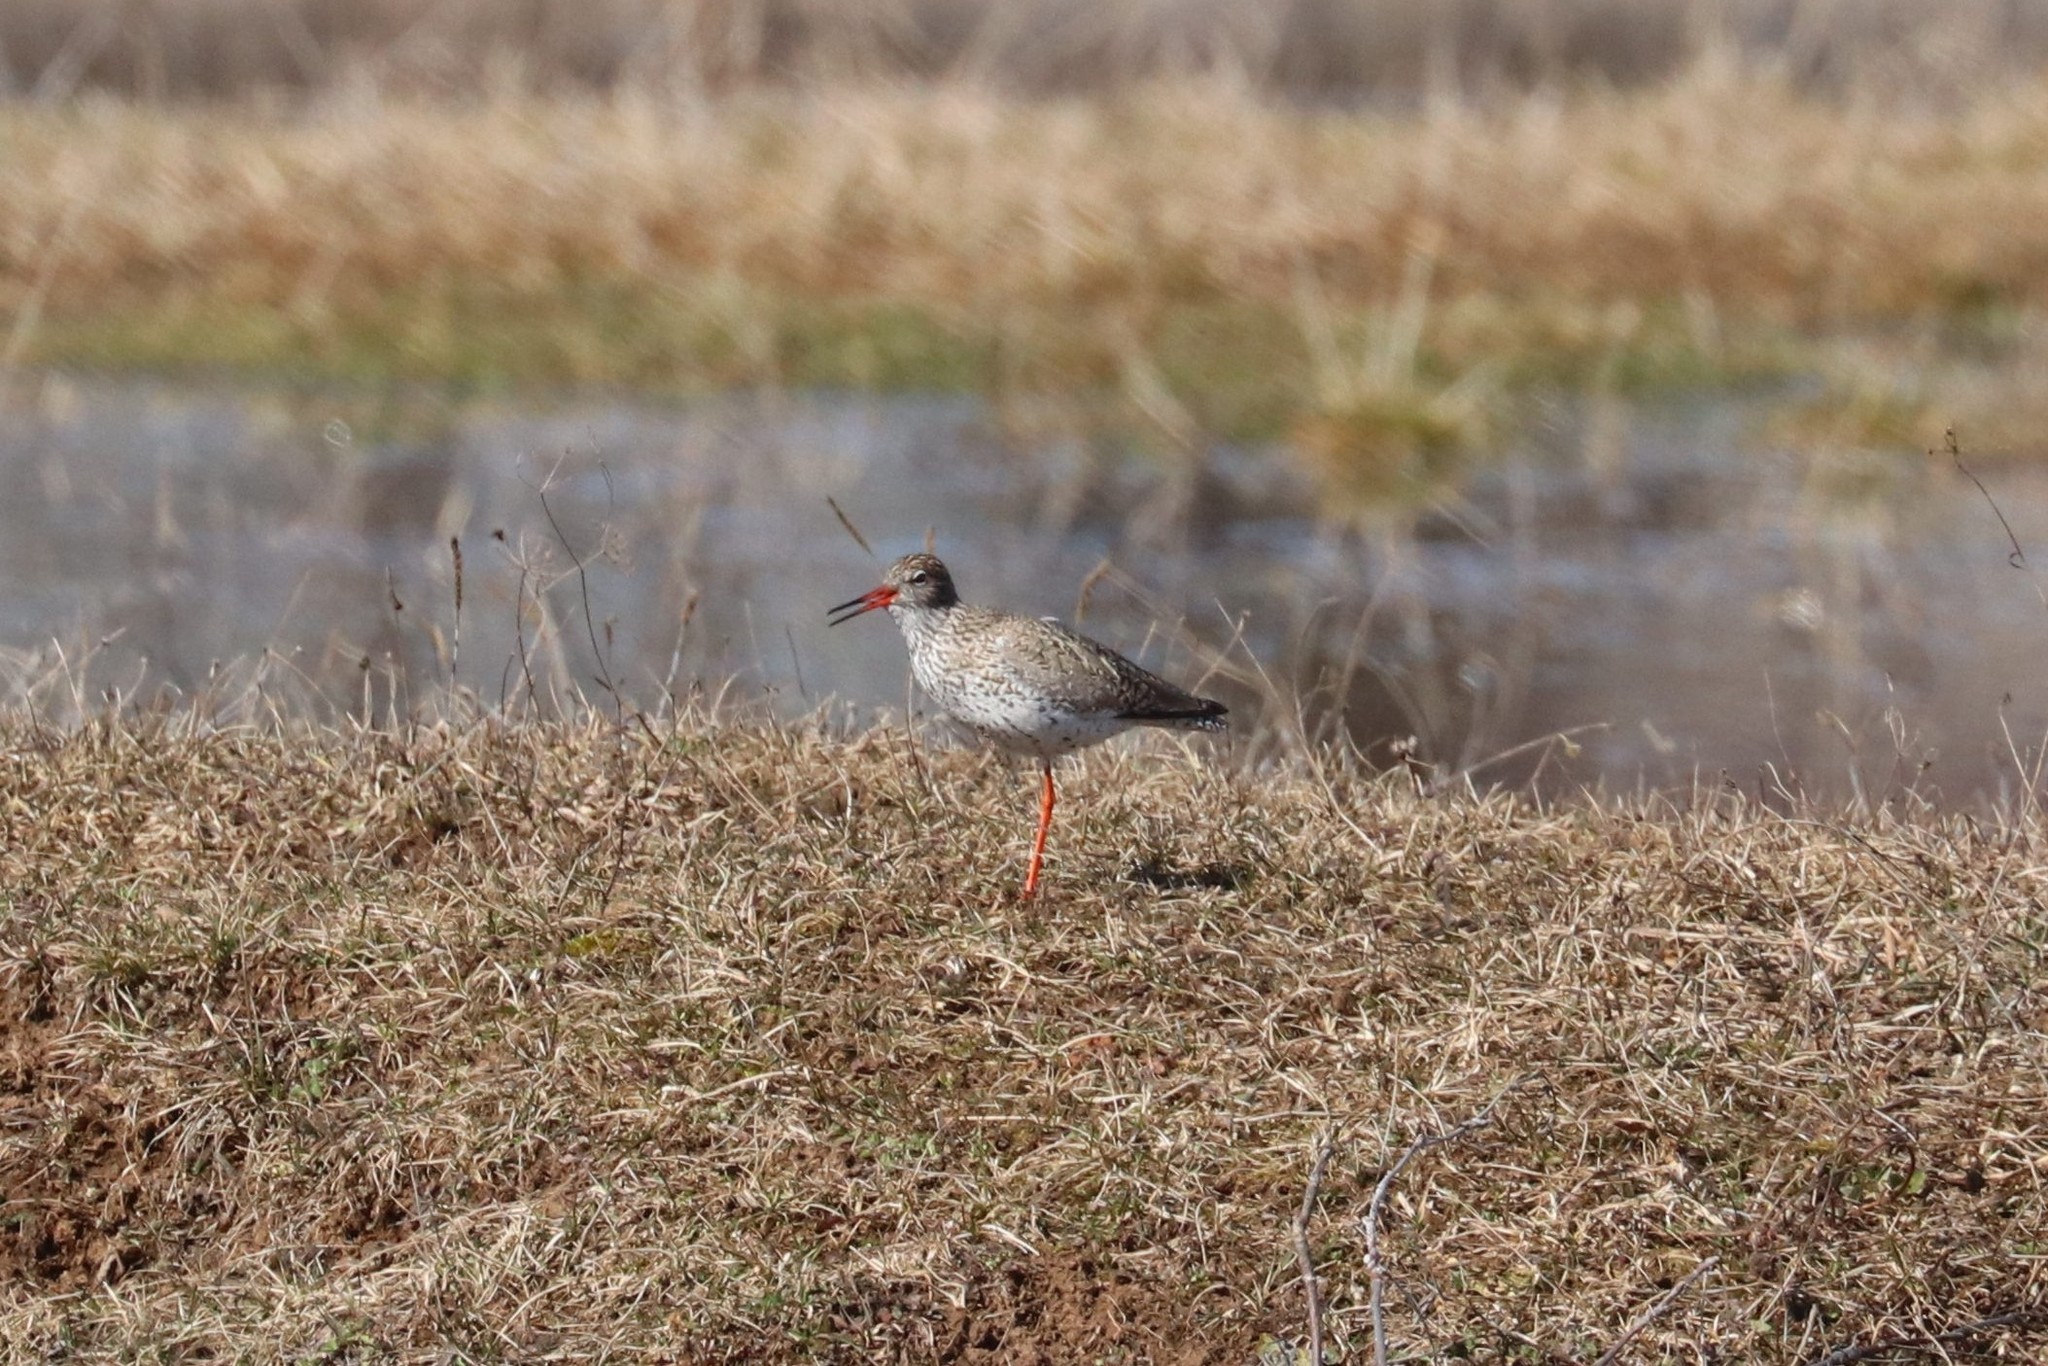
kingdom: Animalia
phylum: Chordata
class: Aves
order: Charadriiformes
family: Scolopacidae
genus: Tringa
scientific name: Tringa totanus
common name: Common redshank
